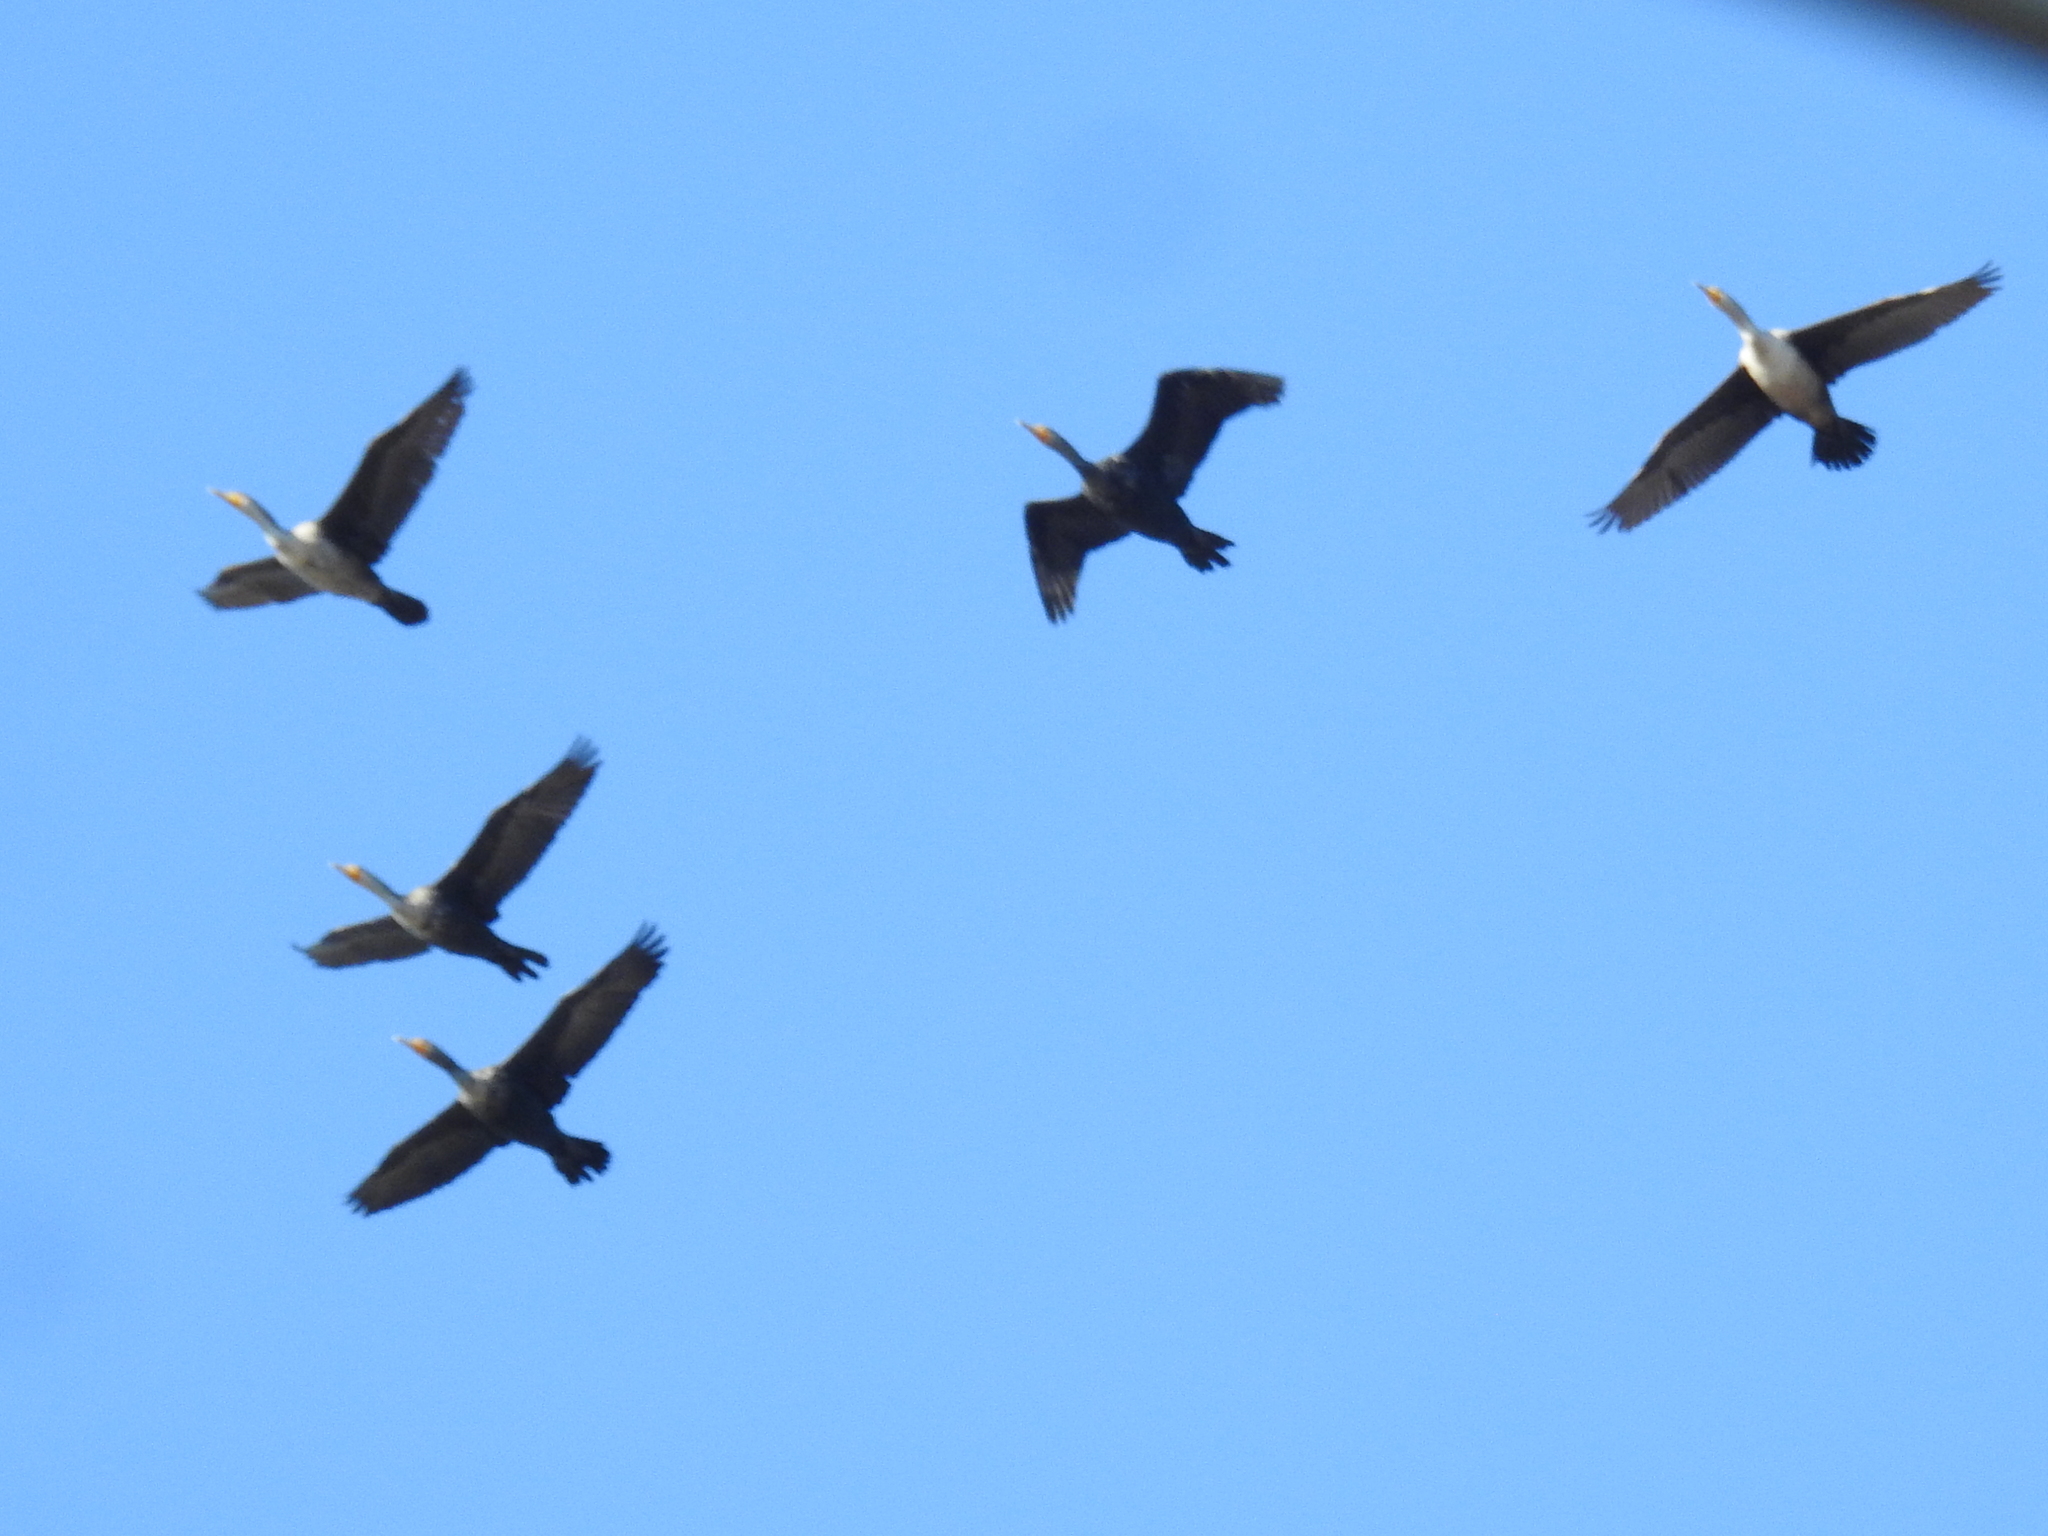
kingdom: Animalia
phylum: Chordata
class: Aves
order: Suliformes
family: Phalacrocoracidae
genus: Phalacrocorax
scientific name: Phalacrocorax auritus
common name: Double-crested cormorant
